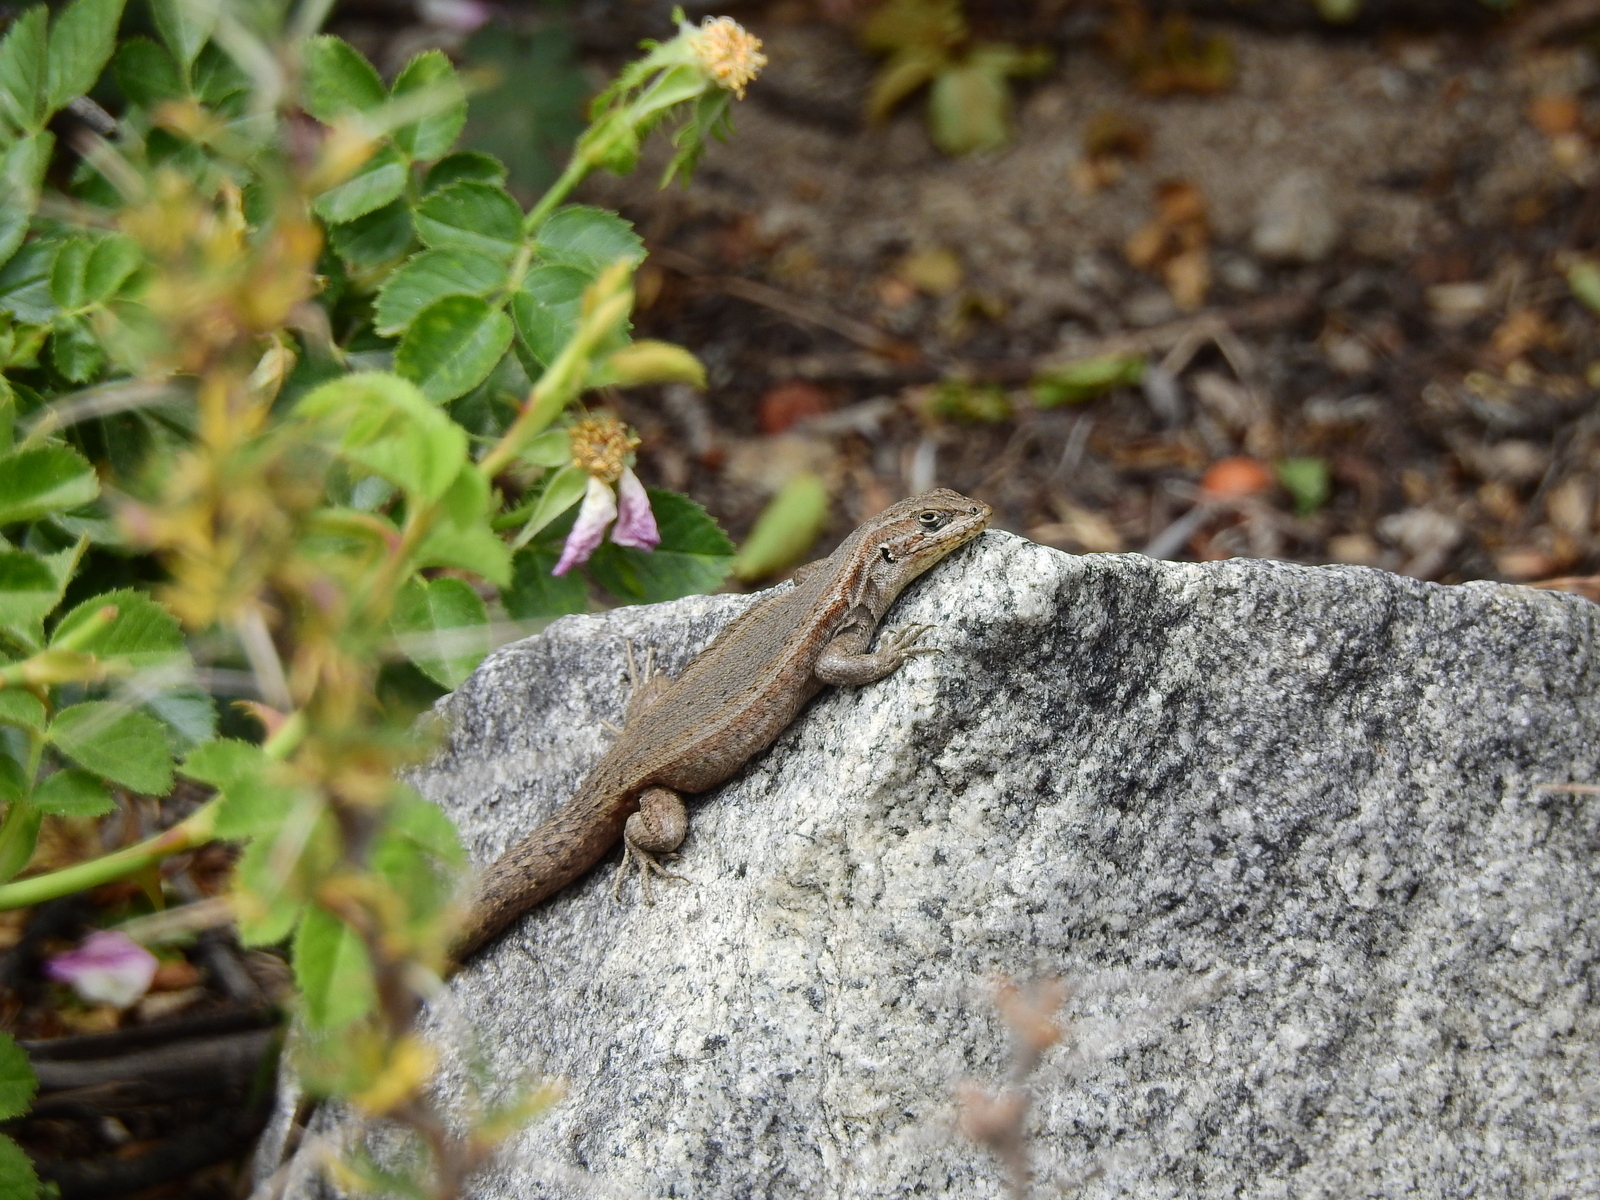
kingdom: Animalia
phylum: Chordata
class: Squamata
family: Liolaemidae
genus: Liolaemus
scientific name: Liolaemus yalguaraz
